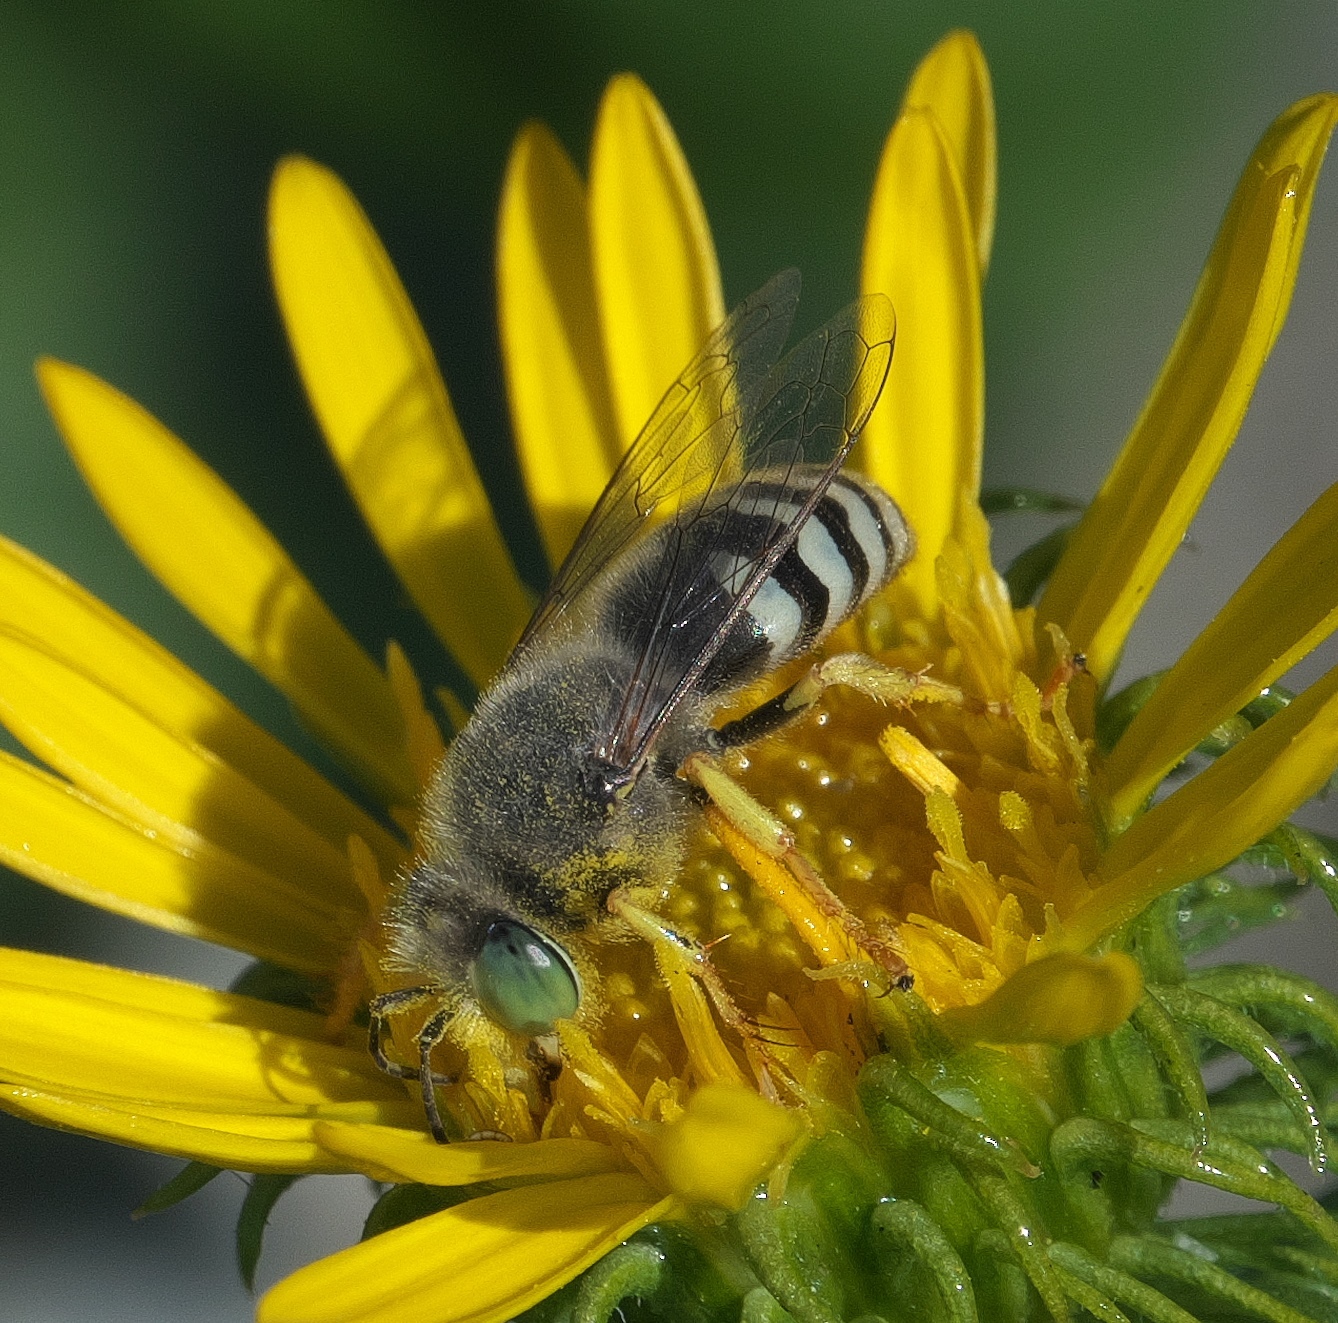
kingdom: Animalia
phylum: Arthropoda
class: Insecta
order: Hymenoptera
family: Crabronidae
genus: Bembix
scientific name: Bembix americana
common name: American sand wasp
